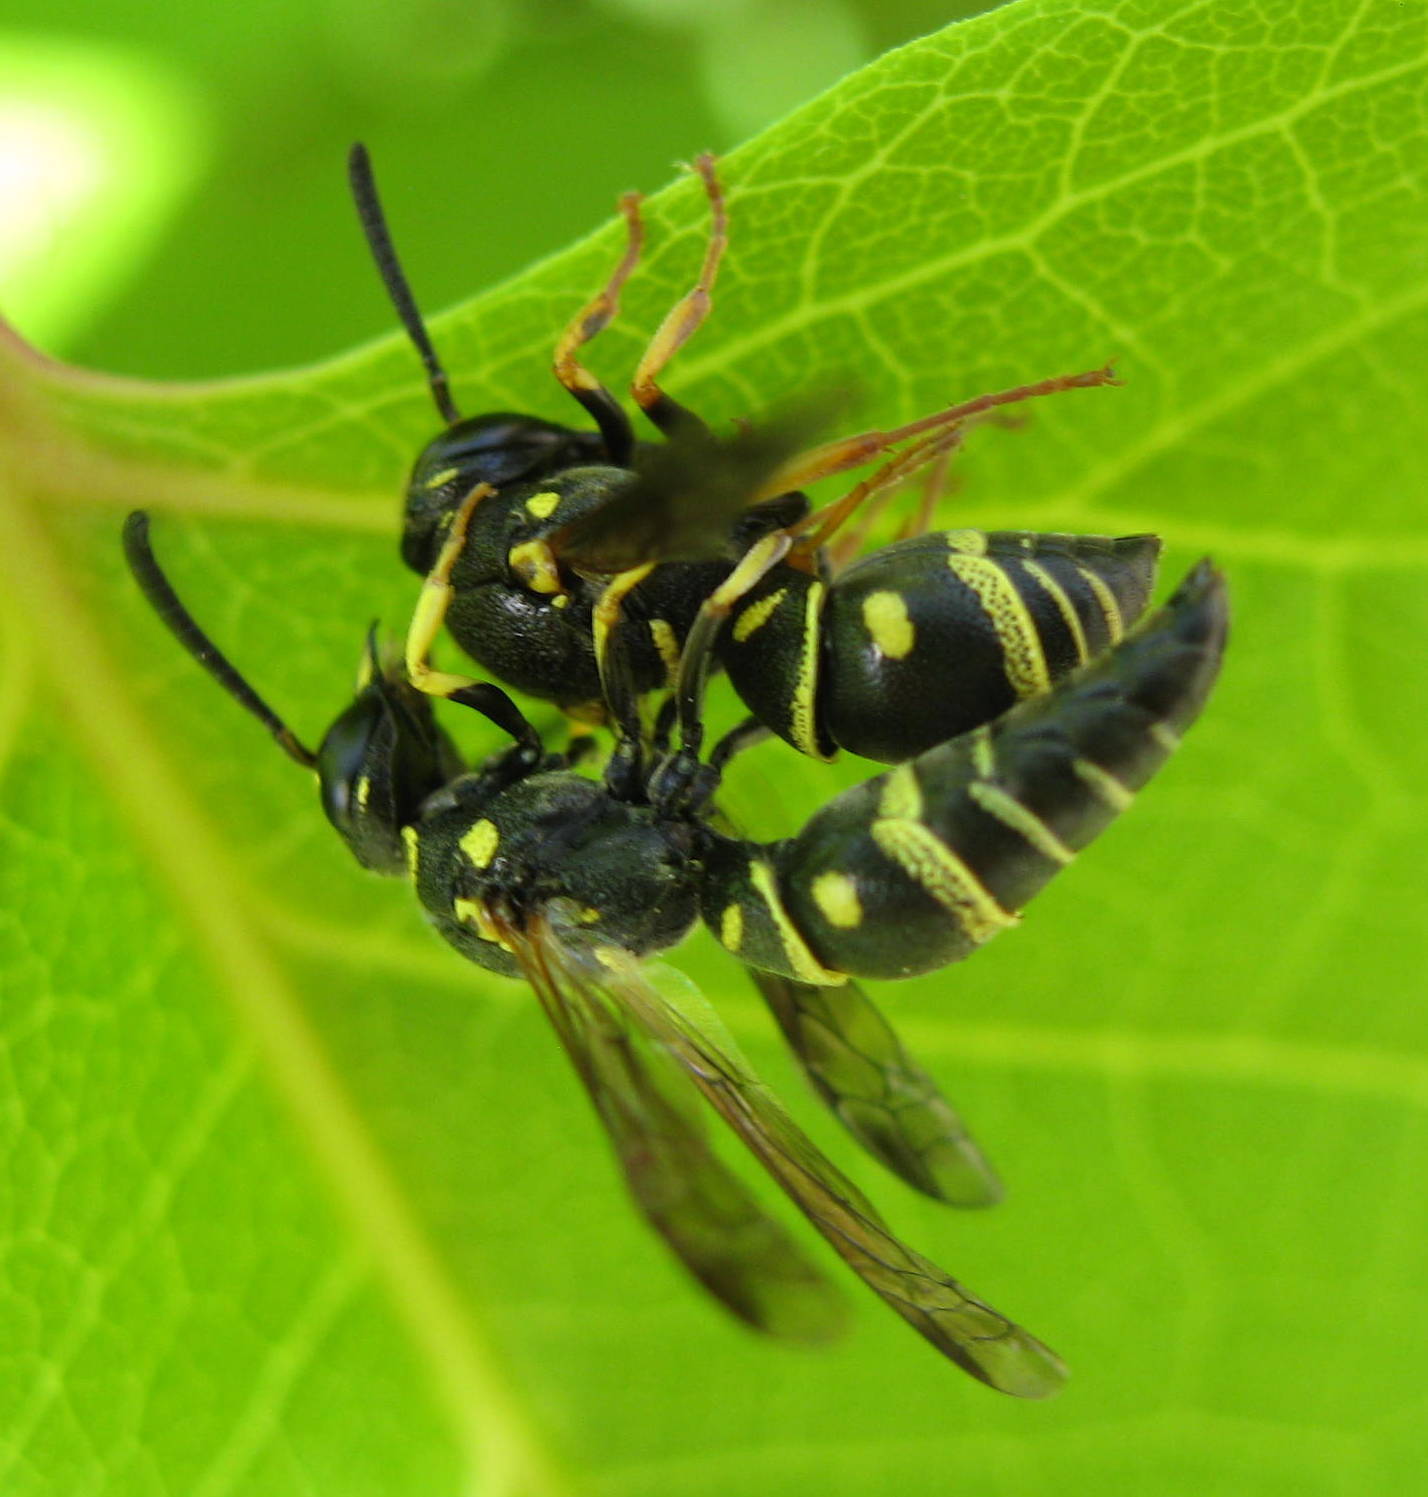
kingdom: Animalia
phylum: Arthropoda
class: Insecta
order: Hymenoptera
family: Eumenidae
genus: Parancistrocerus
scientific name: Parancistrocerus leionotus
